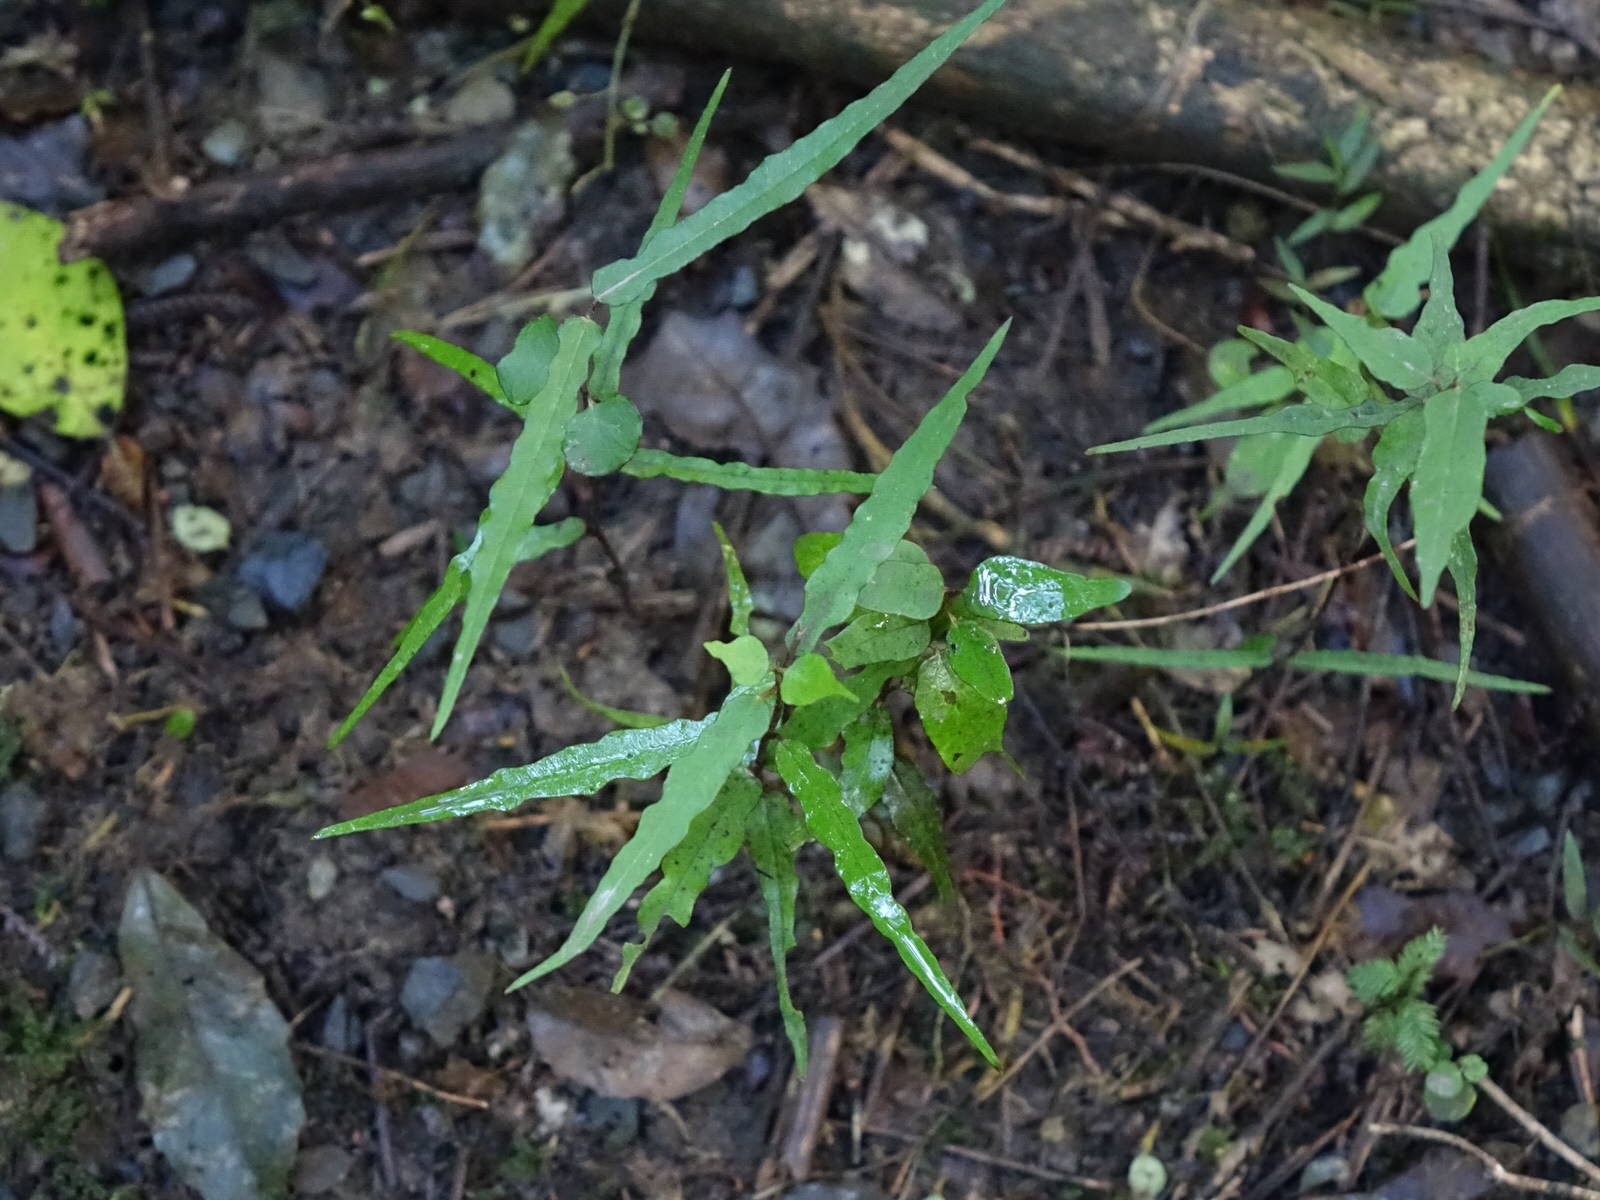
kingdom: Plantae
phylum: Tracheophyta
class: Magnoliopsida
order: Gentianales
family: Apocynaceae
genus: Parsonsia
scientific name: Parsonsia heterophylla
